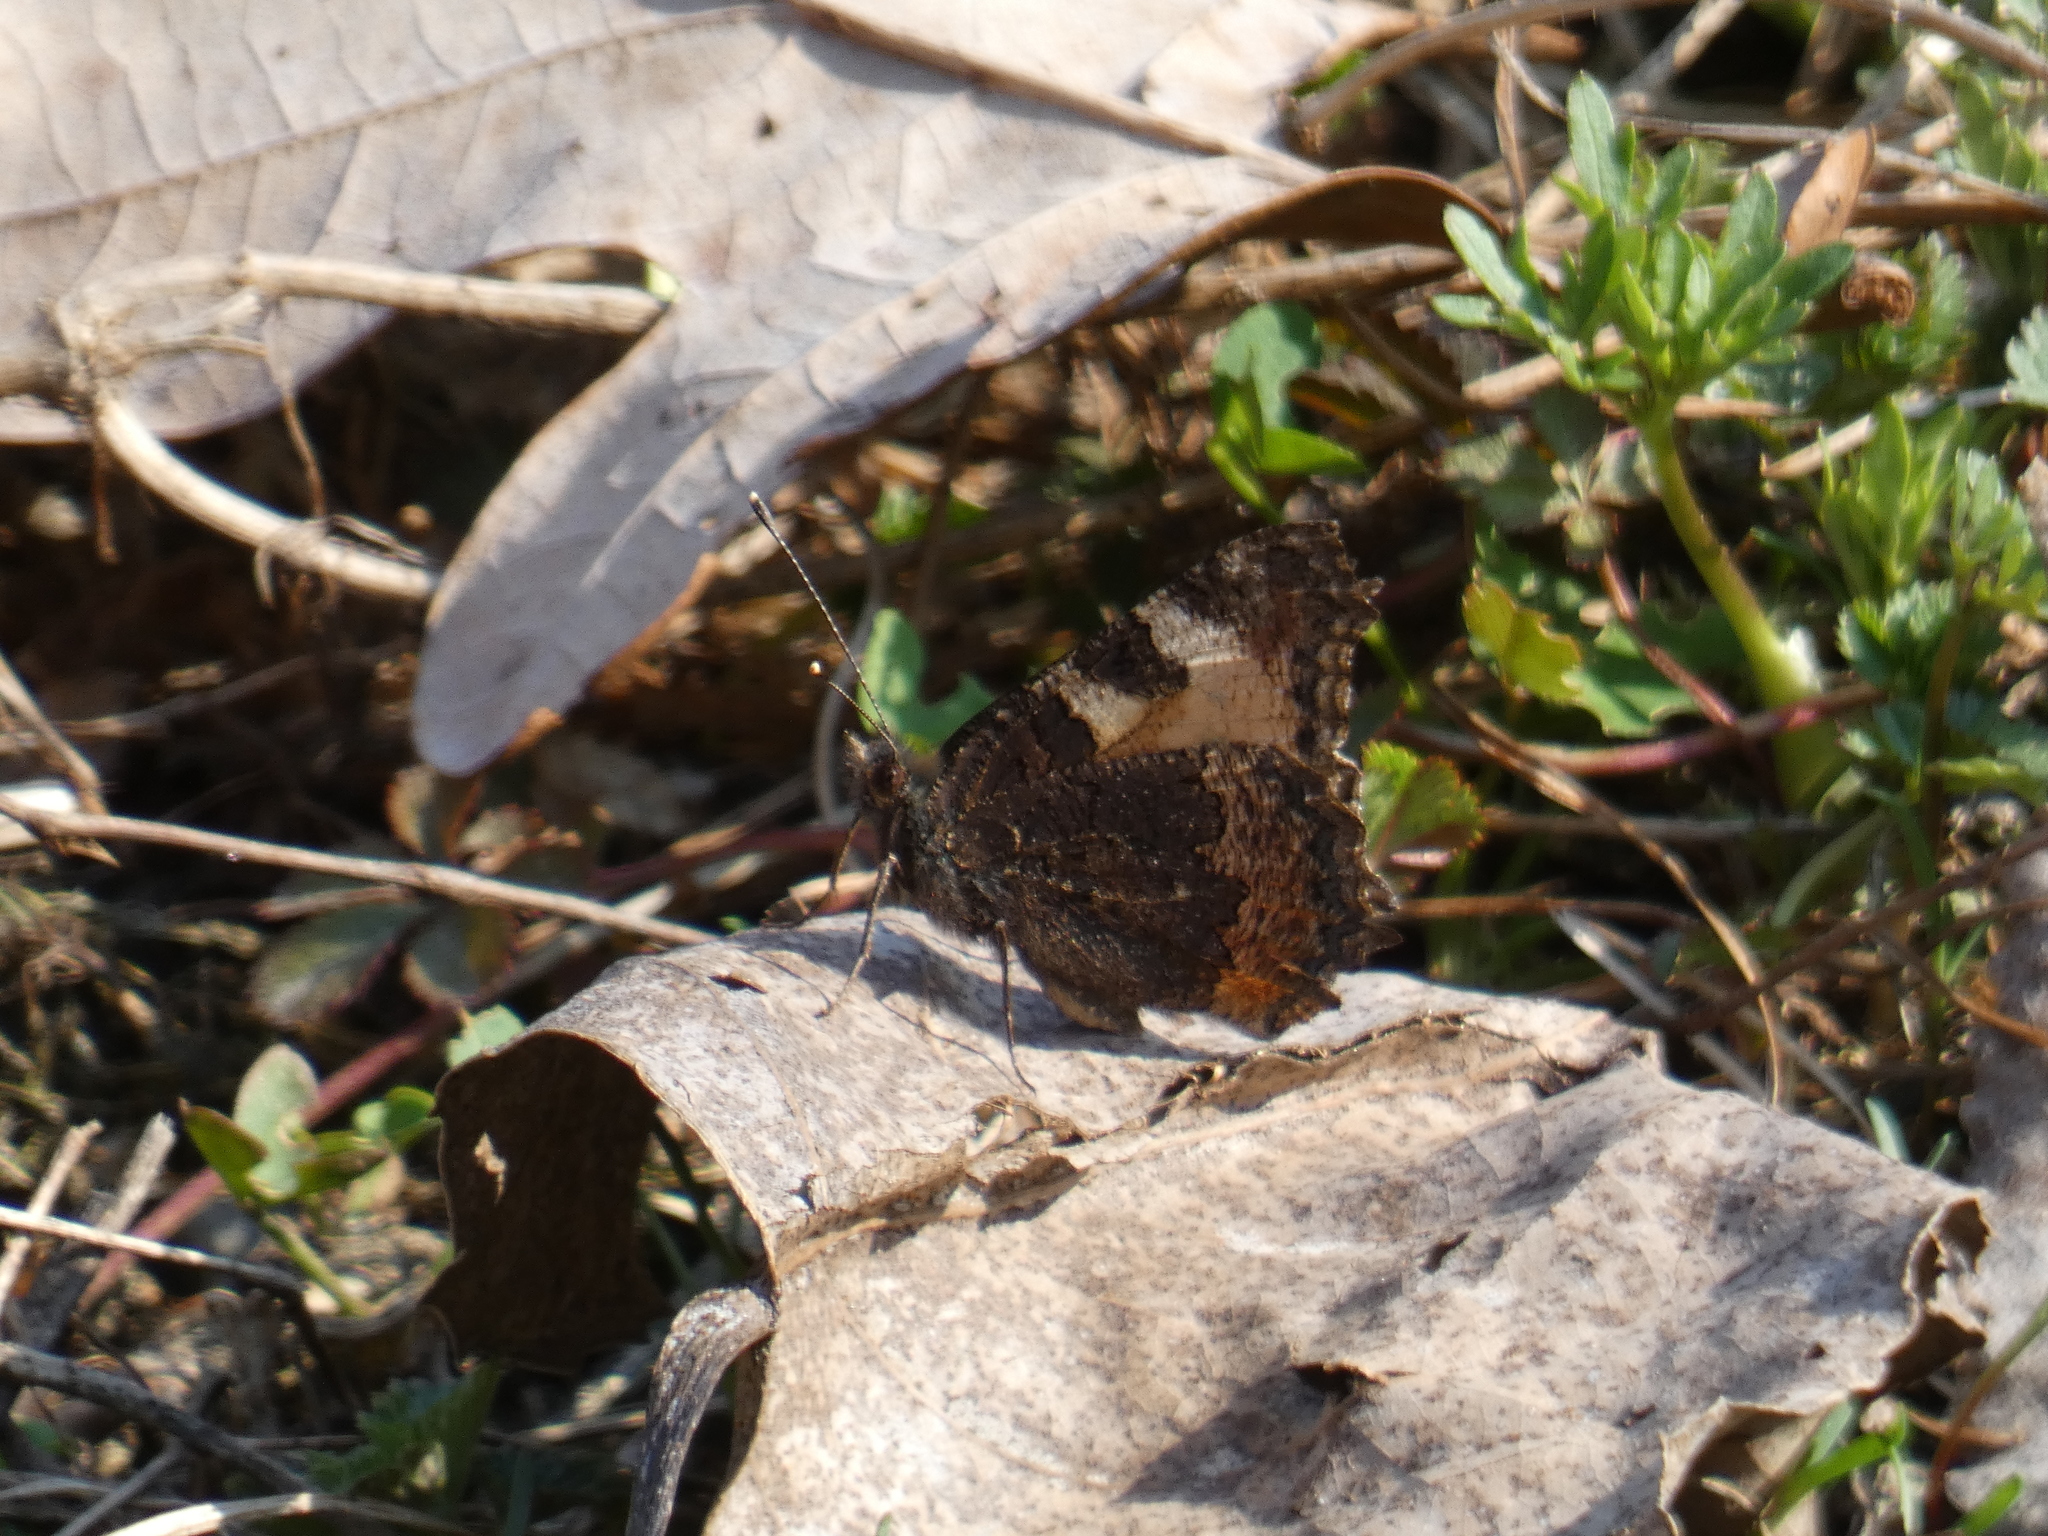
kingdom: Animalia
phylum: Arthropoda
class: Insecta
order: Lepidoptera
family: Nymphalidae
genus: Aglais
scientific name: Aglais urticae
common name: Small tortoiseshell
